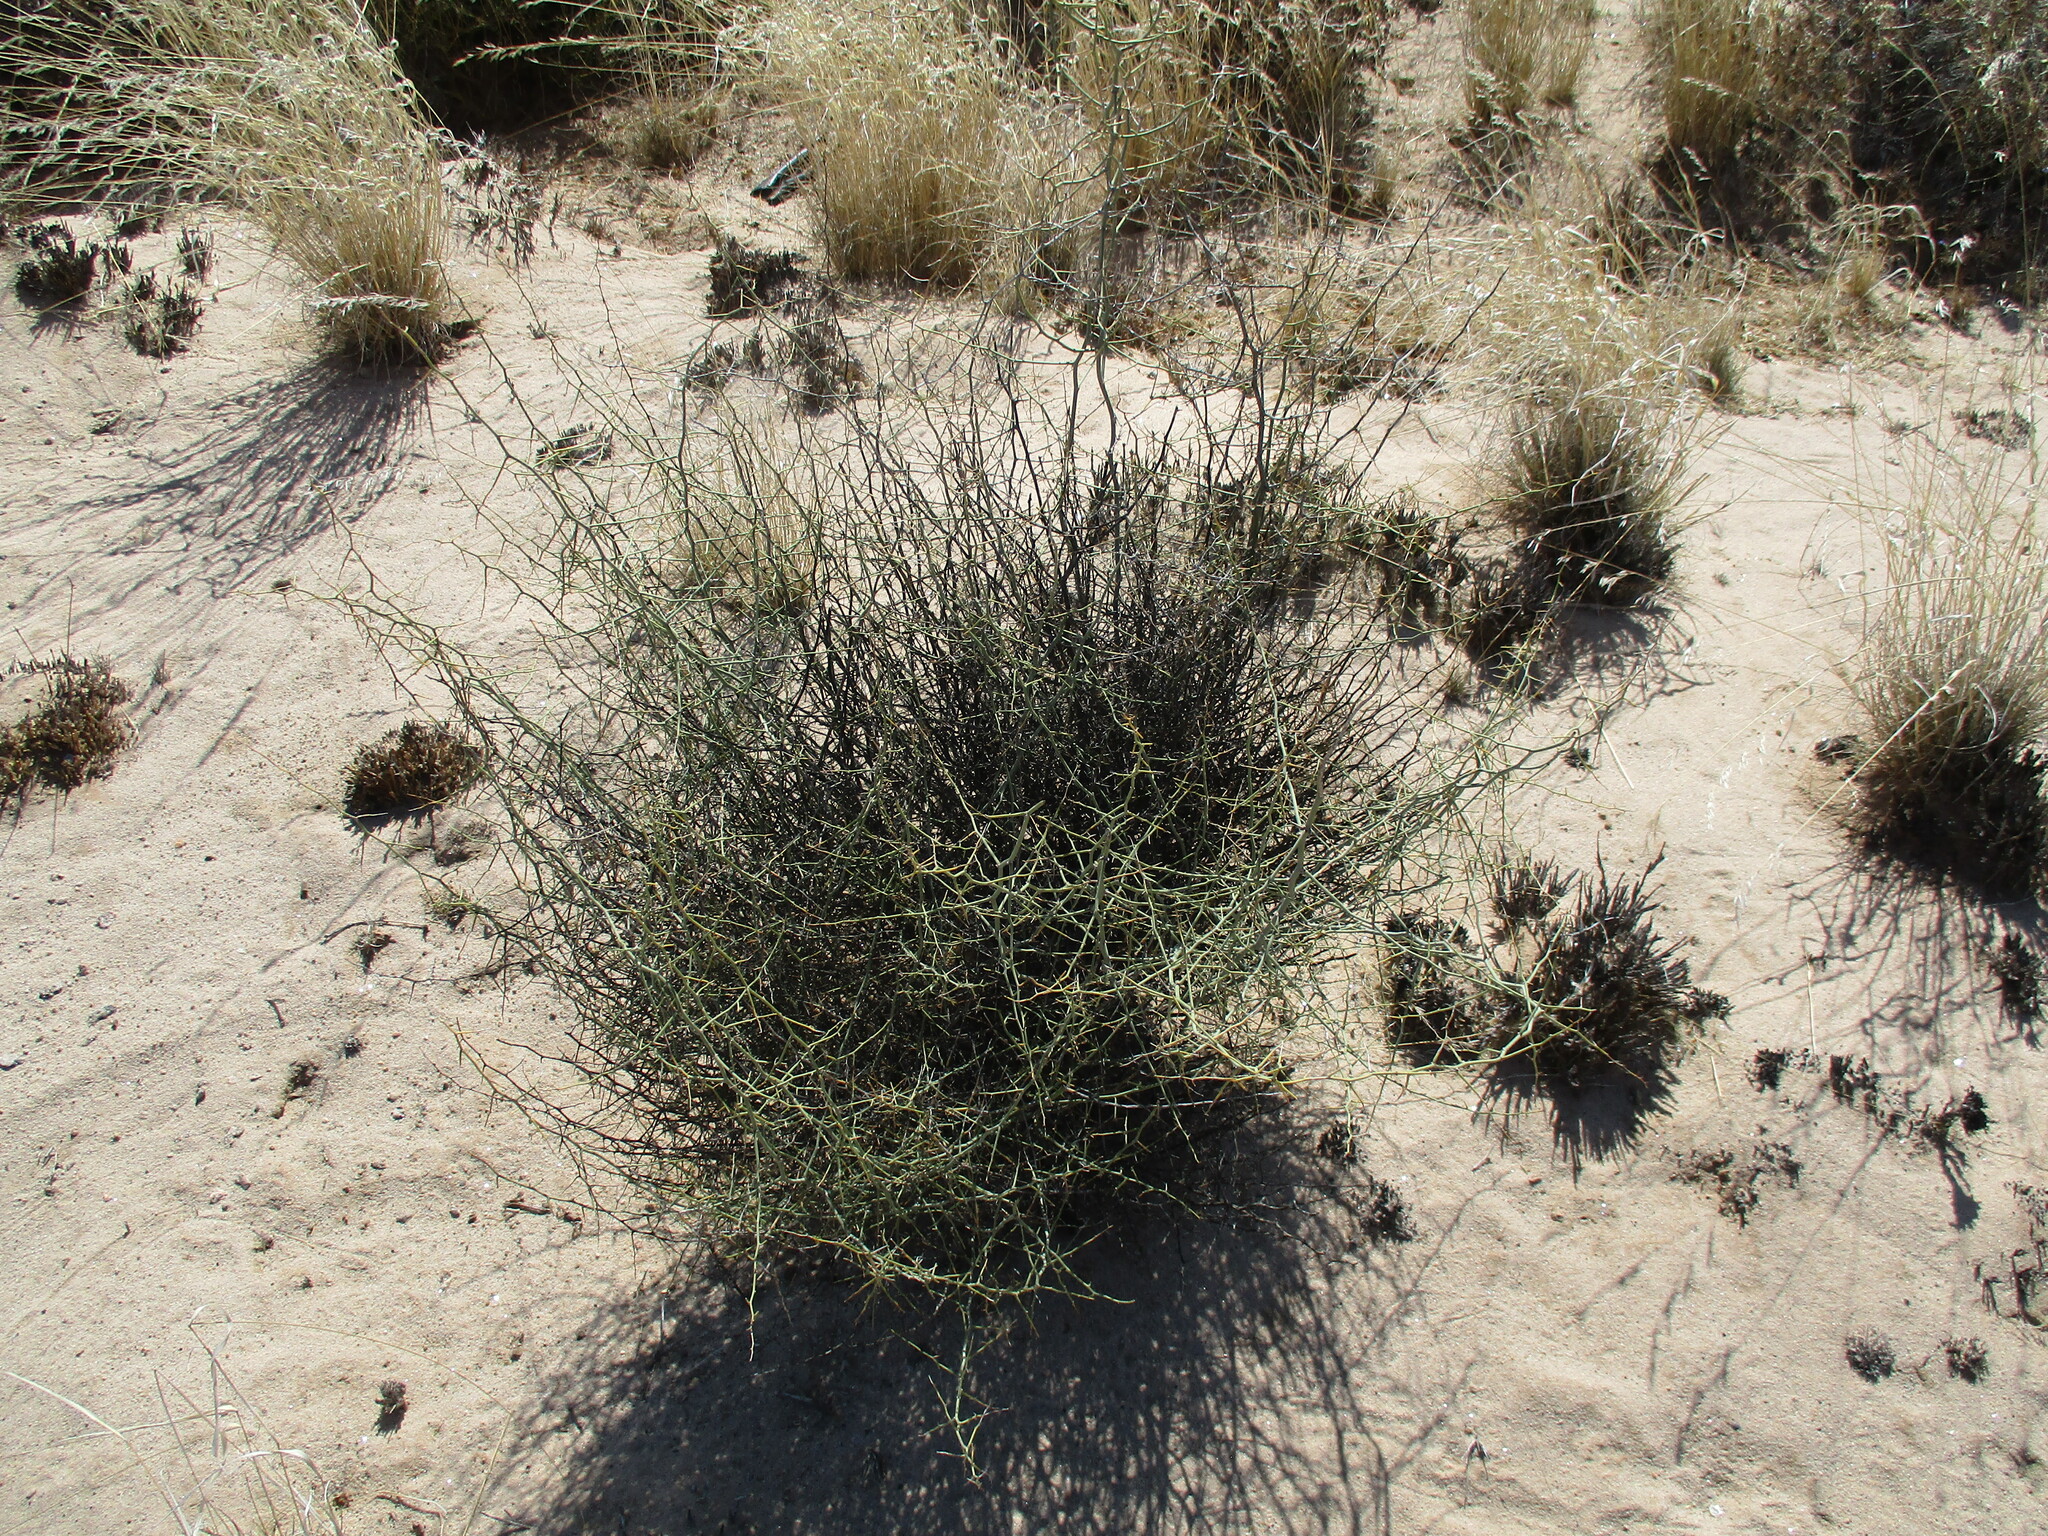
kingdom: Plantae
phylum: Tracheophyta
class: Liliopsida
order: Asparagales
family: Asparagaceae
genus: Asparagus
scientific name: Asparagus pearsonii
